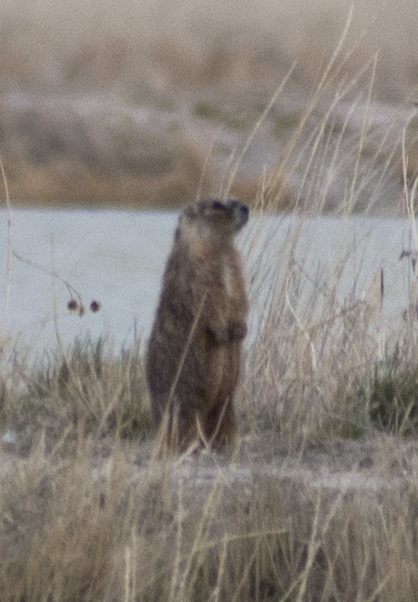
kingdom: Animalia
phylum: Chordata
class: Mammalia
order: Rodentia
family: Sciuridae
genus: Marmota
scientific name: Marmota flaviventris
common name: Yellow-bellied marmot
